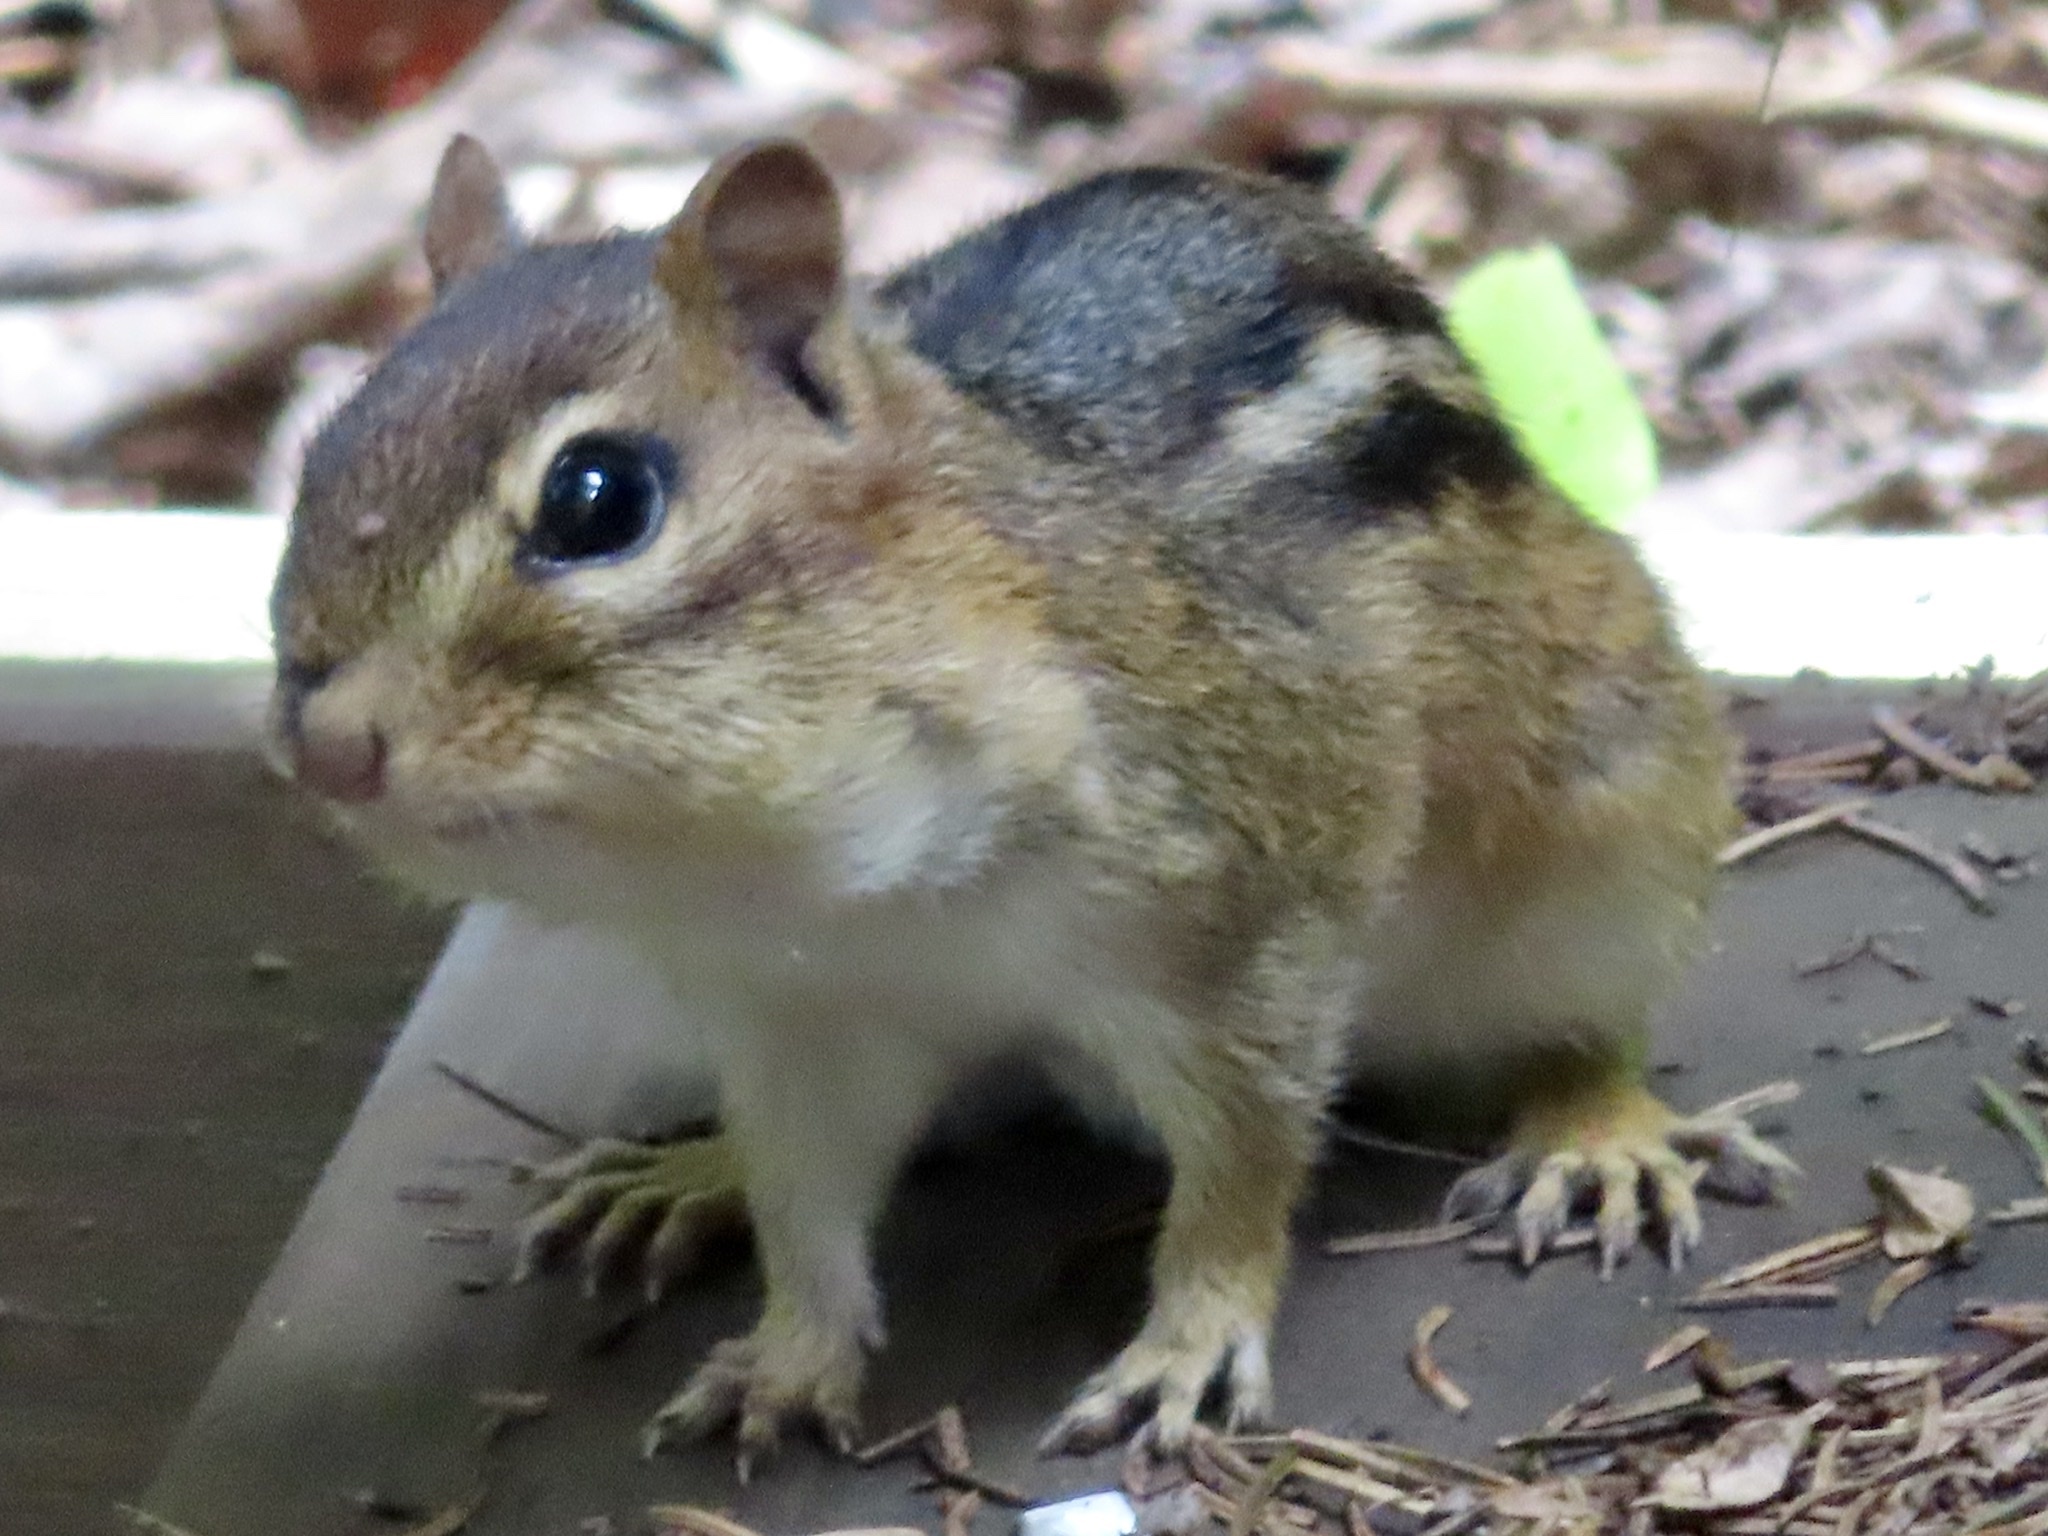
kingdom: Animalia
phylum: Chordata
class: Mammalia
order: Rodentia
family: Sciuridae
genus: Tamias
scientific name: Tamias striatus
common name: Eastern chipmunk
